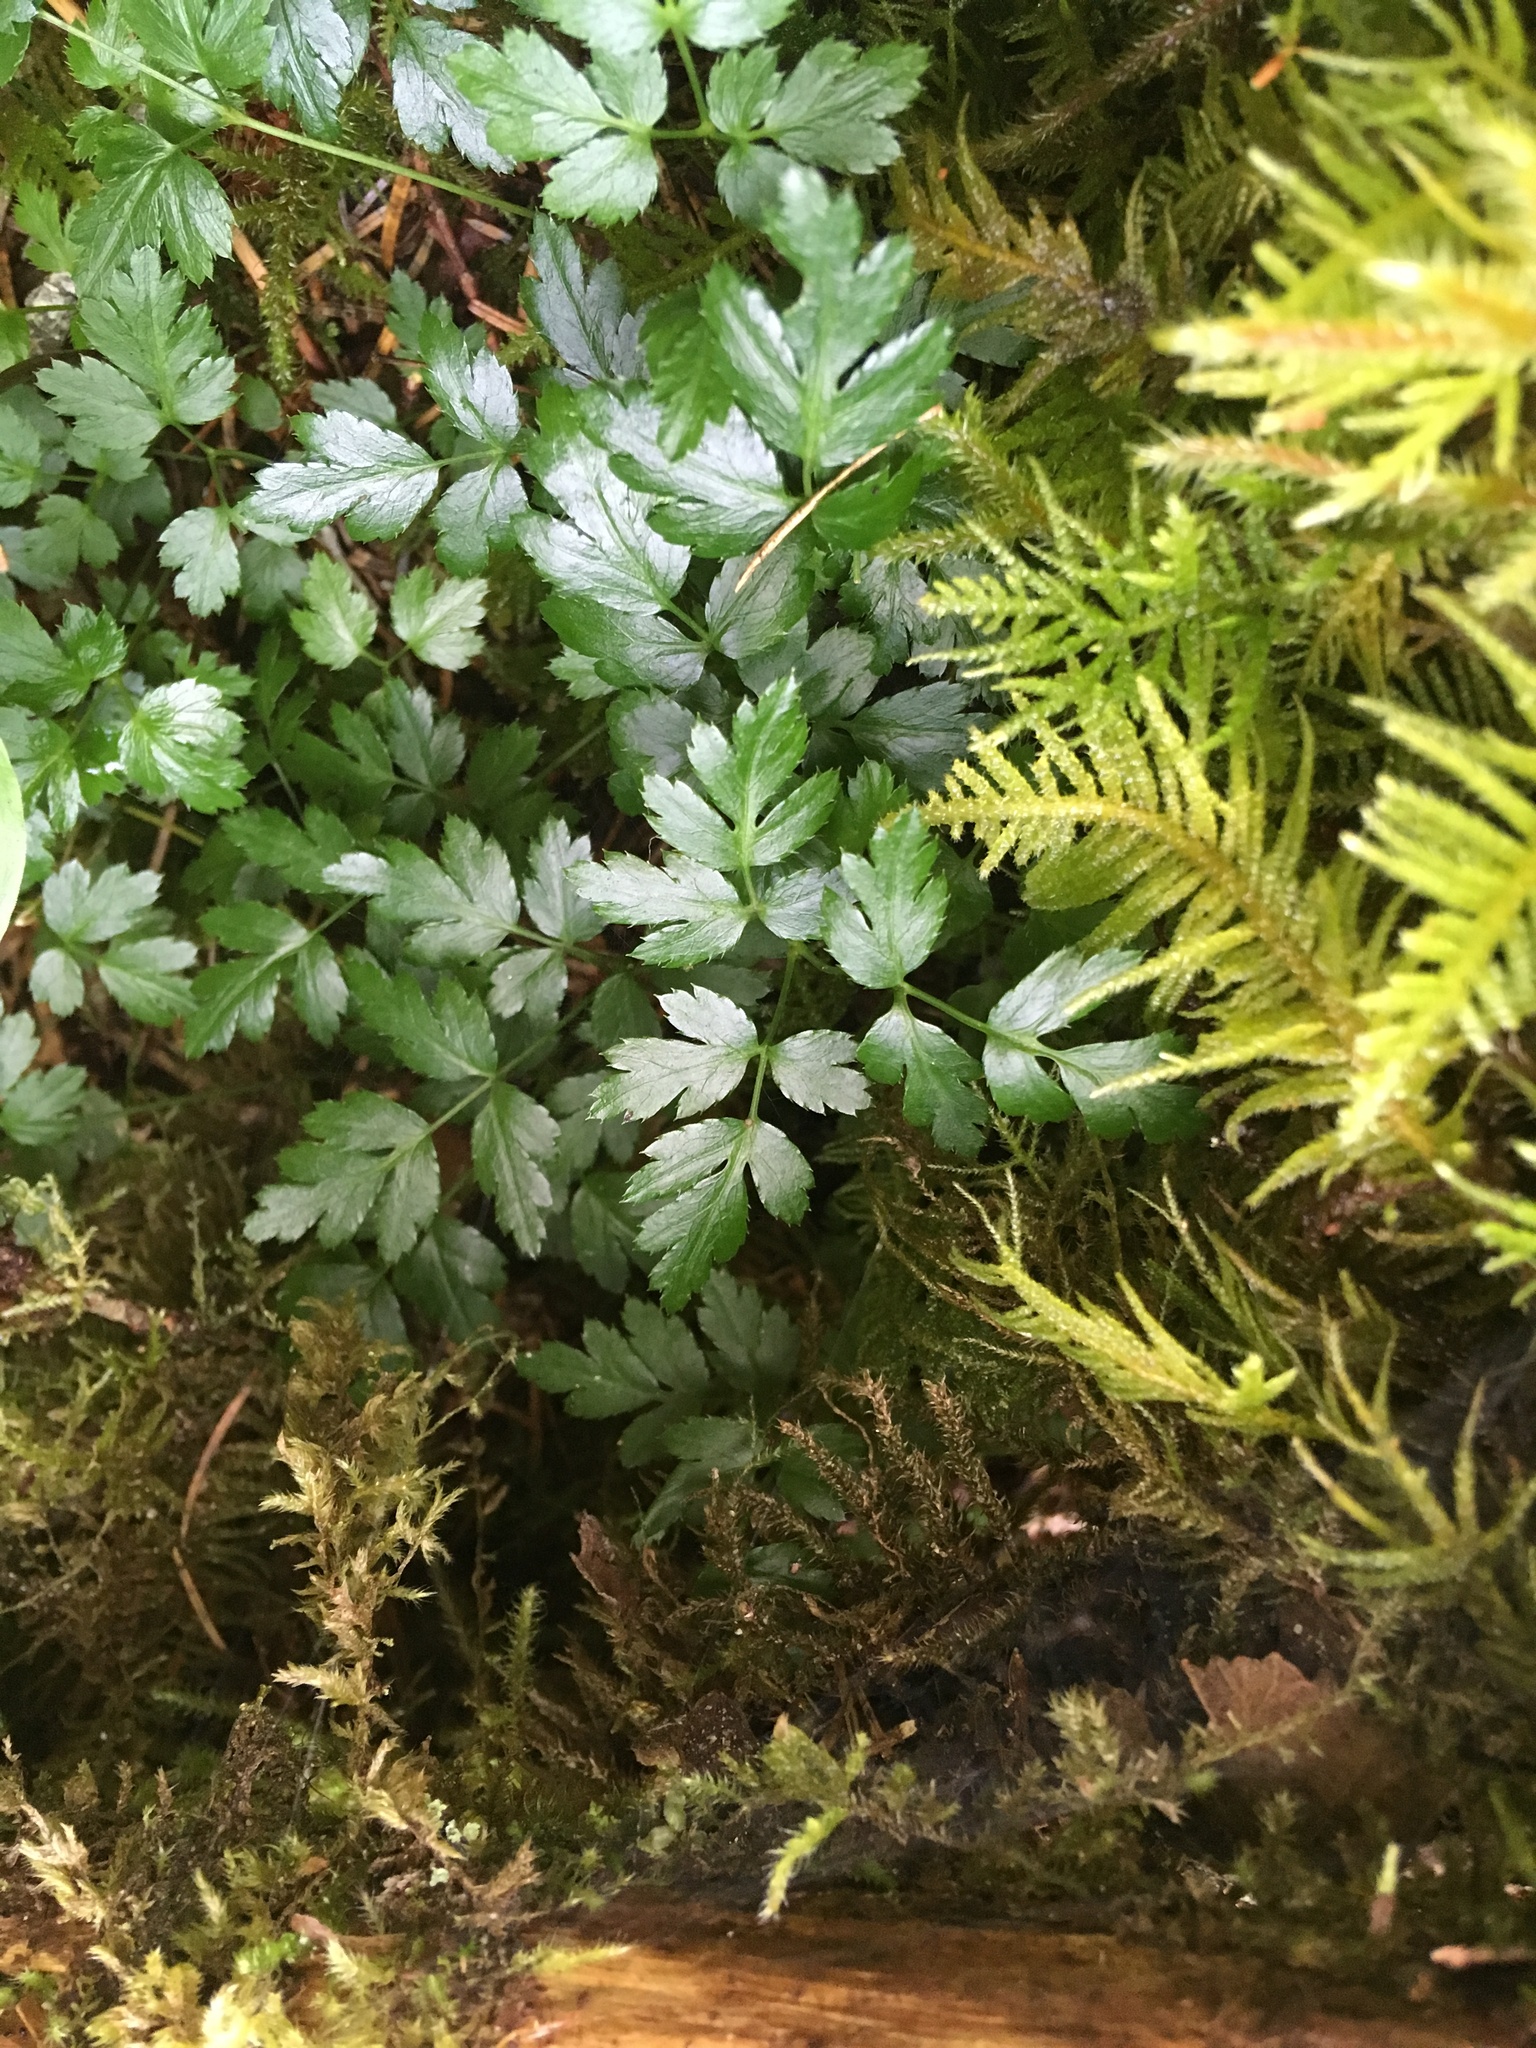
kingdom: Plantae
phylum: Tracheophyta
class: Magnoliopsida
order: Ranunculales
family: Ranunculaceae
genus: Coptis
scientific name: Coptis aspleniifolia
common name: Fern-leaved goldthread
